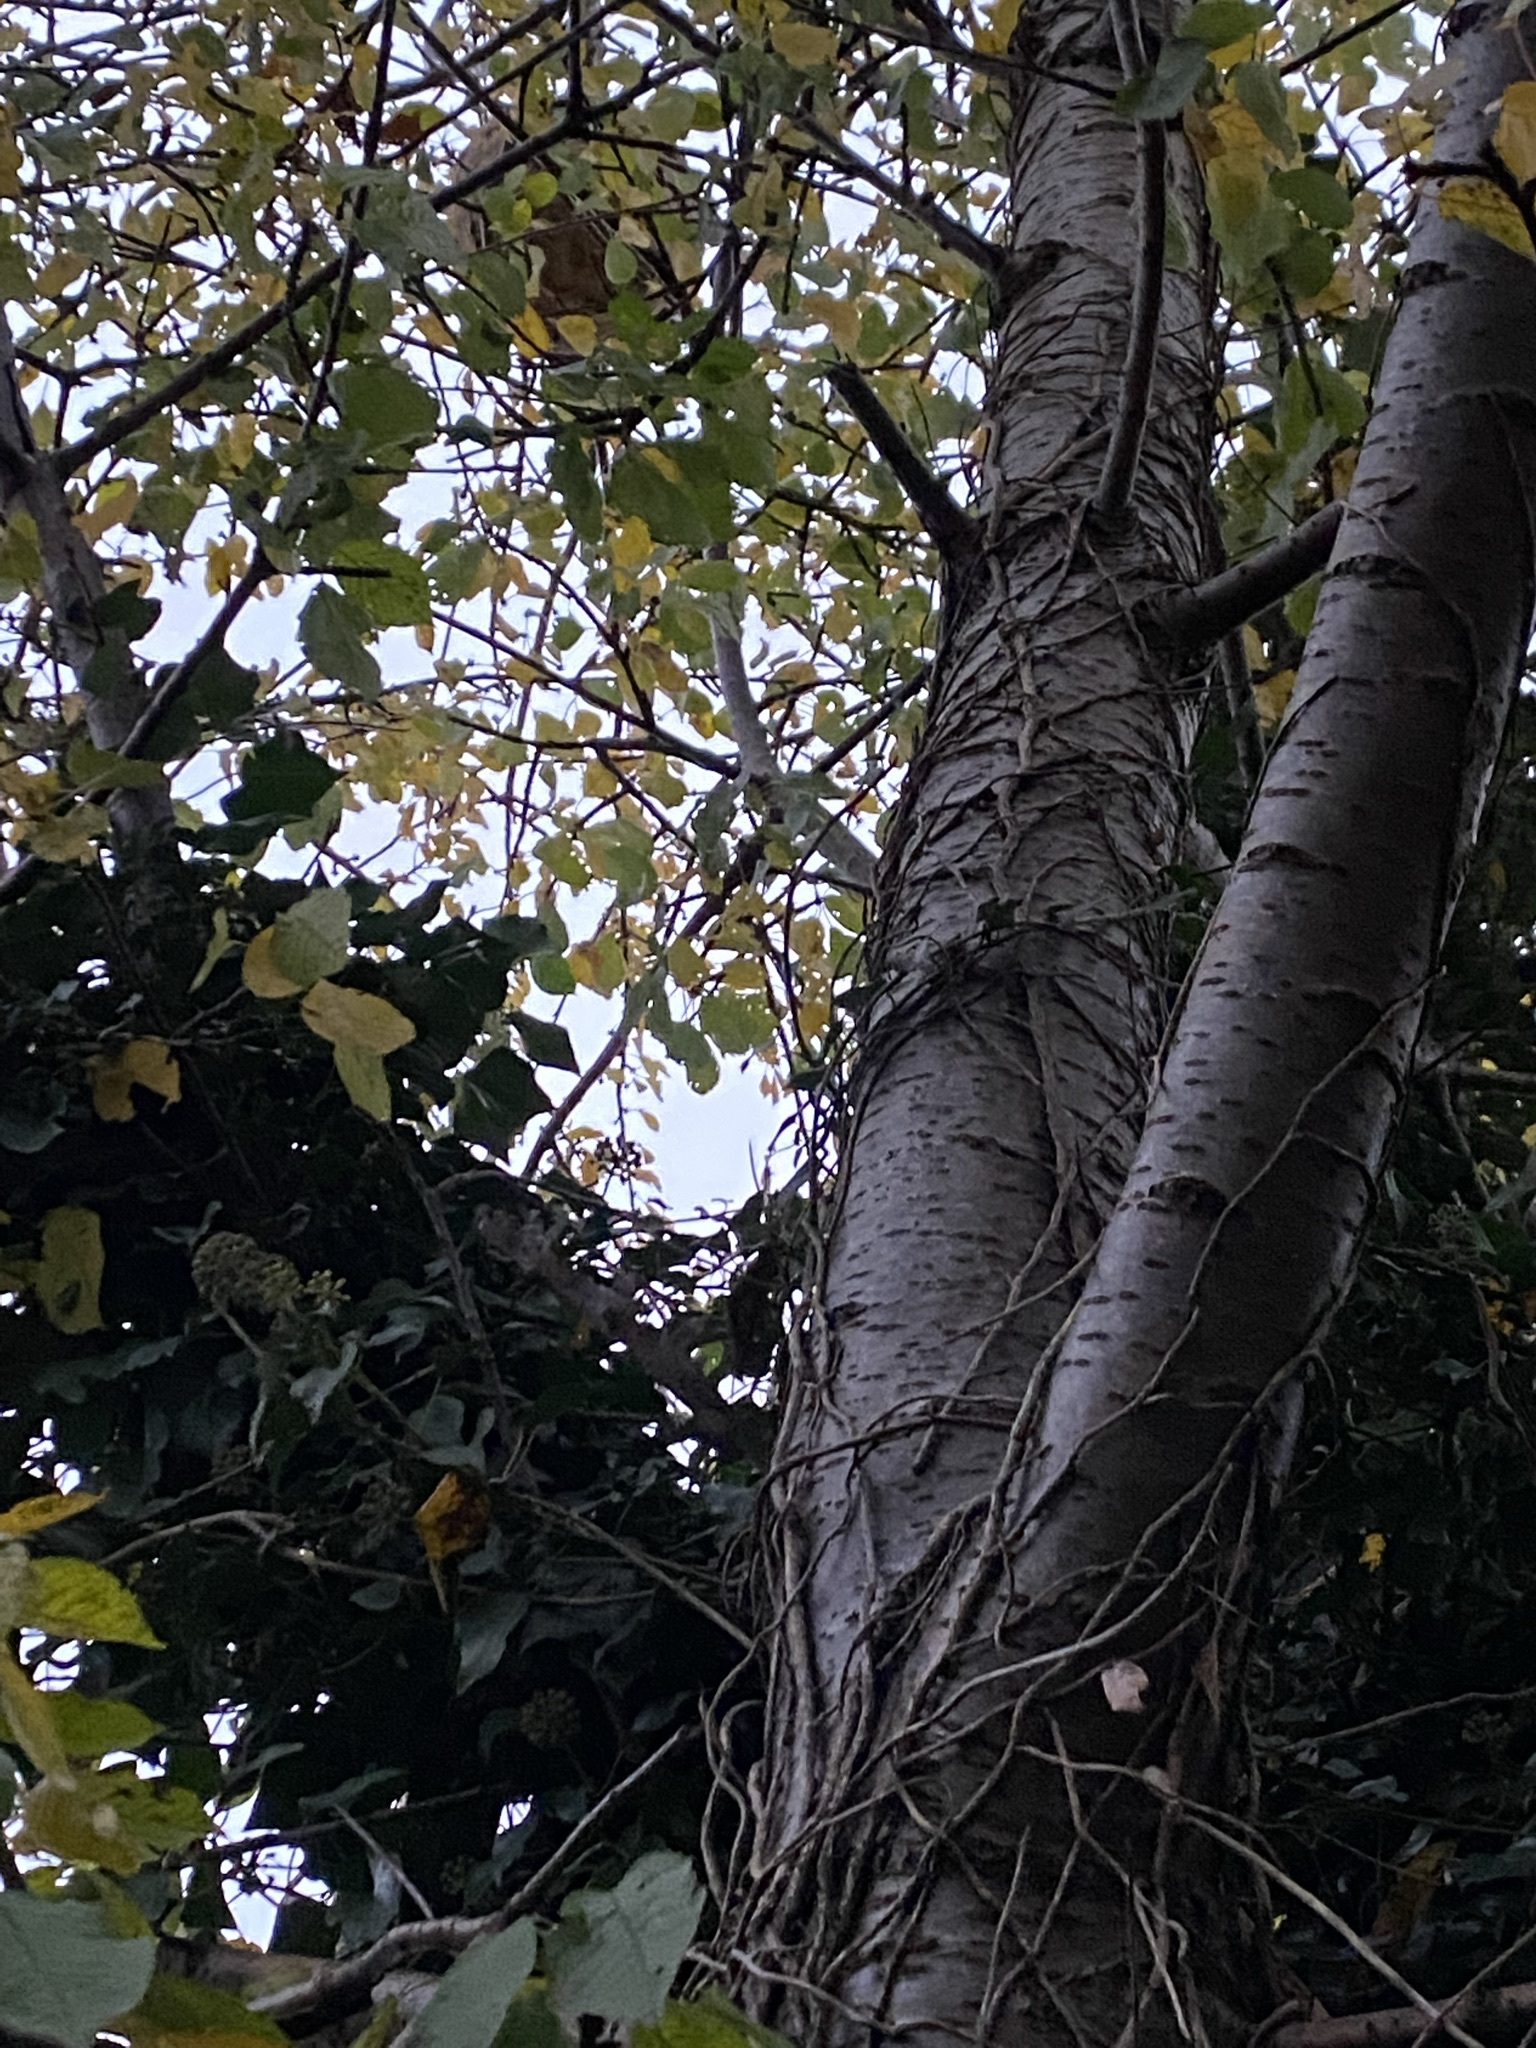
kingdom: Animalia
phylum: Arthropoda
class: Insecta
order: Hymenoptera
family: Vespidae
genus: Vespa
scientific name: Vespa velutina
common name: Asian hornet
